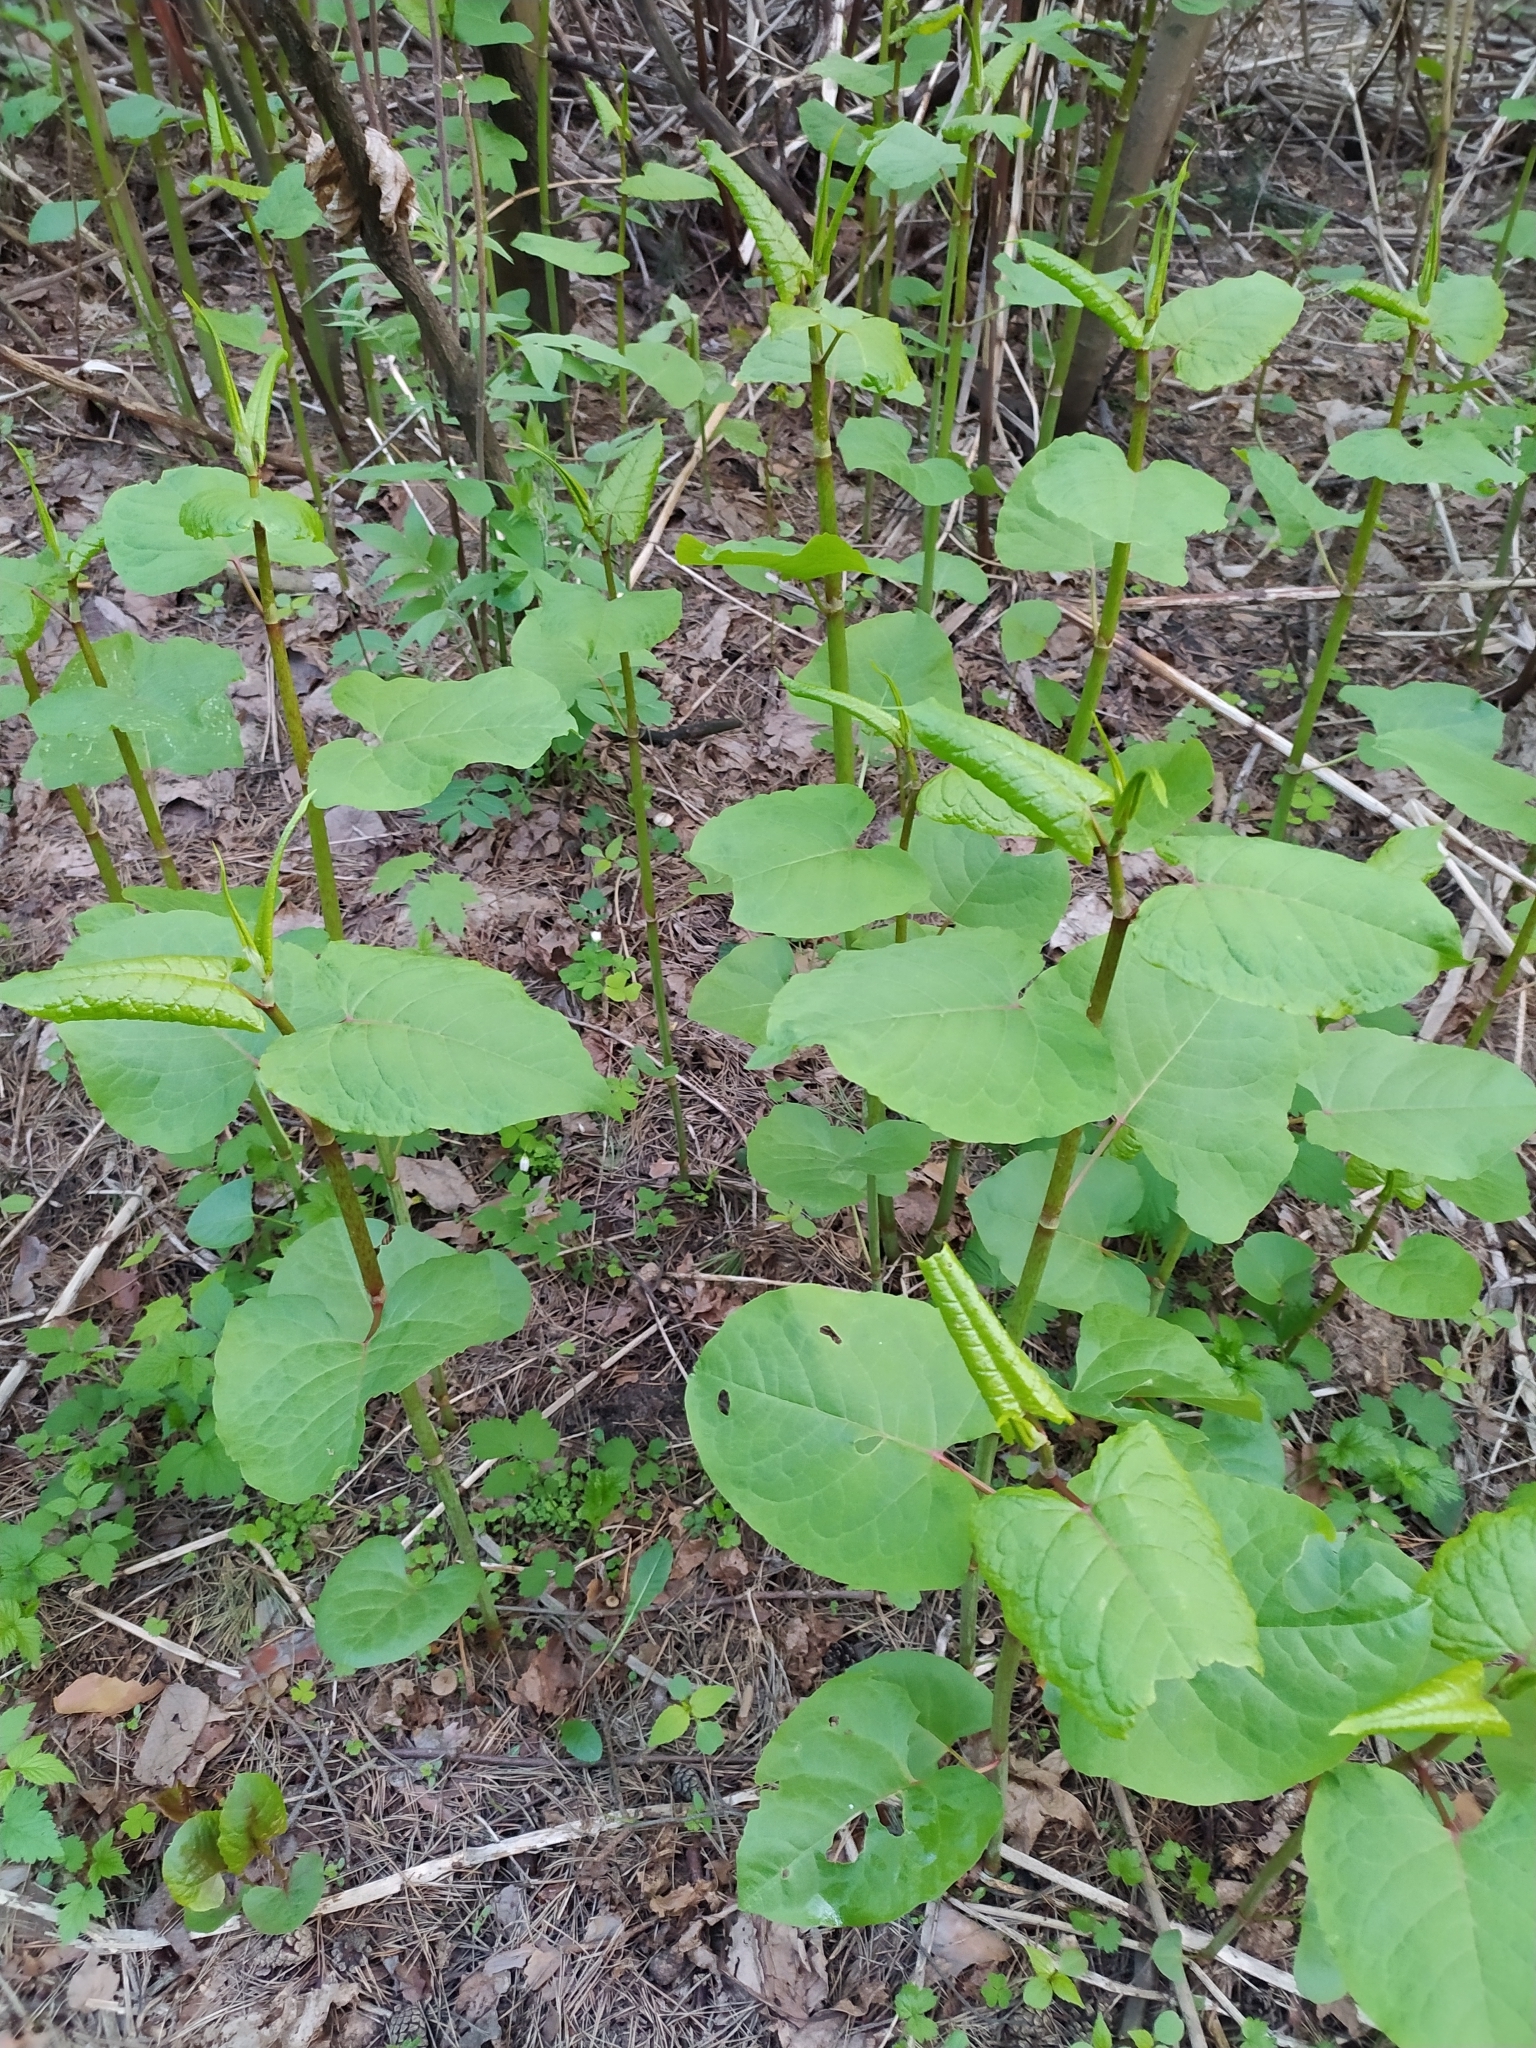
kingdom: Plantae
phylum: Tracheophyta
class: Magnoliopsida
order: Caryophyllales
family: Polygonaceae
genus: Reynoutria
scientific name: Reynoutria bohemica
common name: Bohemian knotweed
